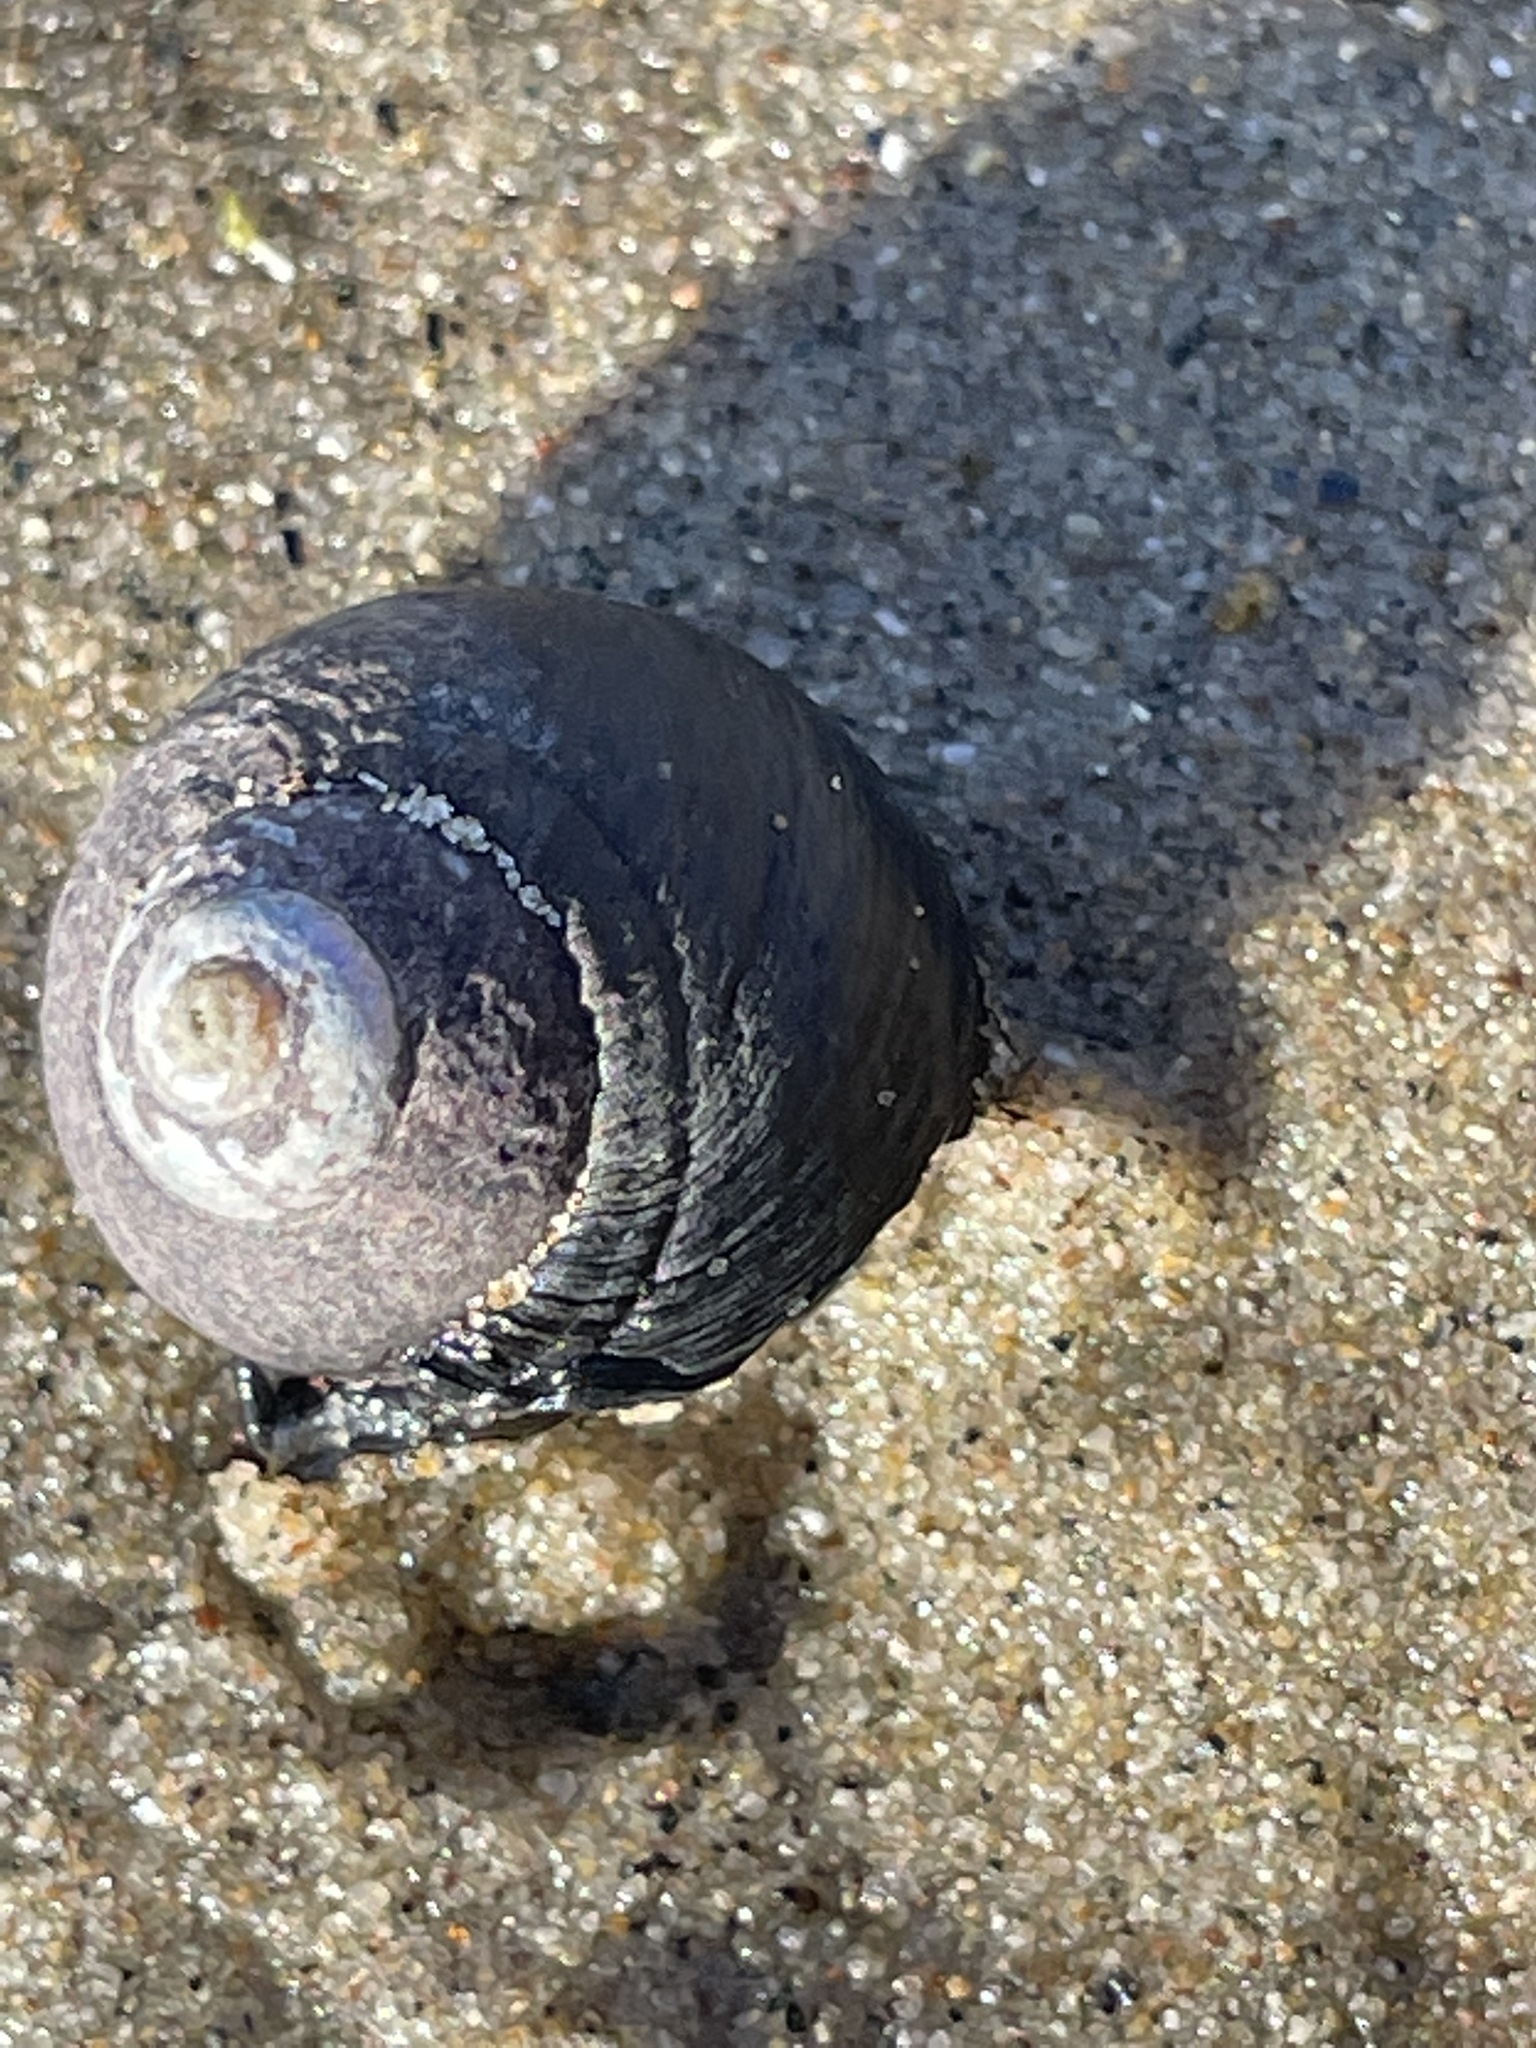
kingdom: Animalia
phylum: Mollusca
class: Gastropoda
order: Trochida
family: Tegulidae
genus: Tegula
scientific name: Tegula funebralis
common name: Black tegula
